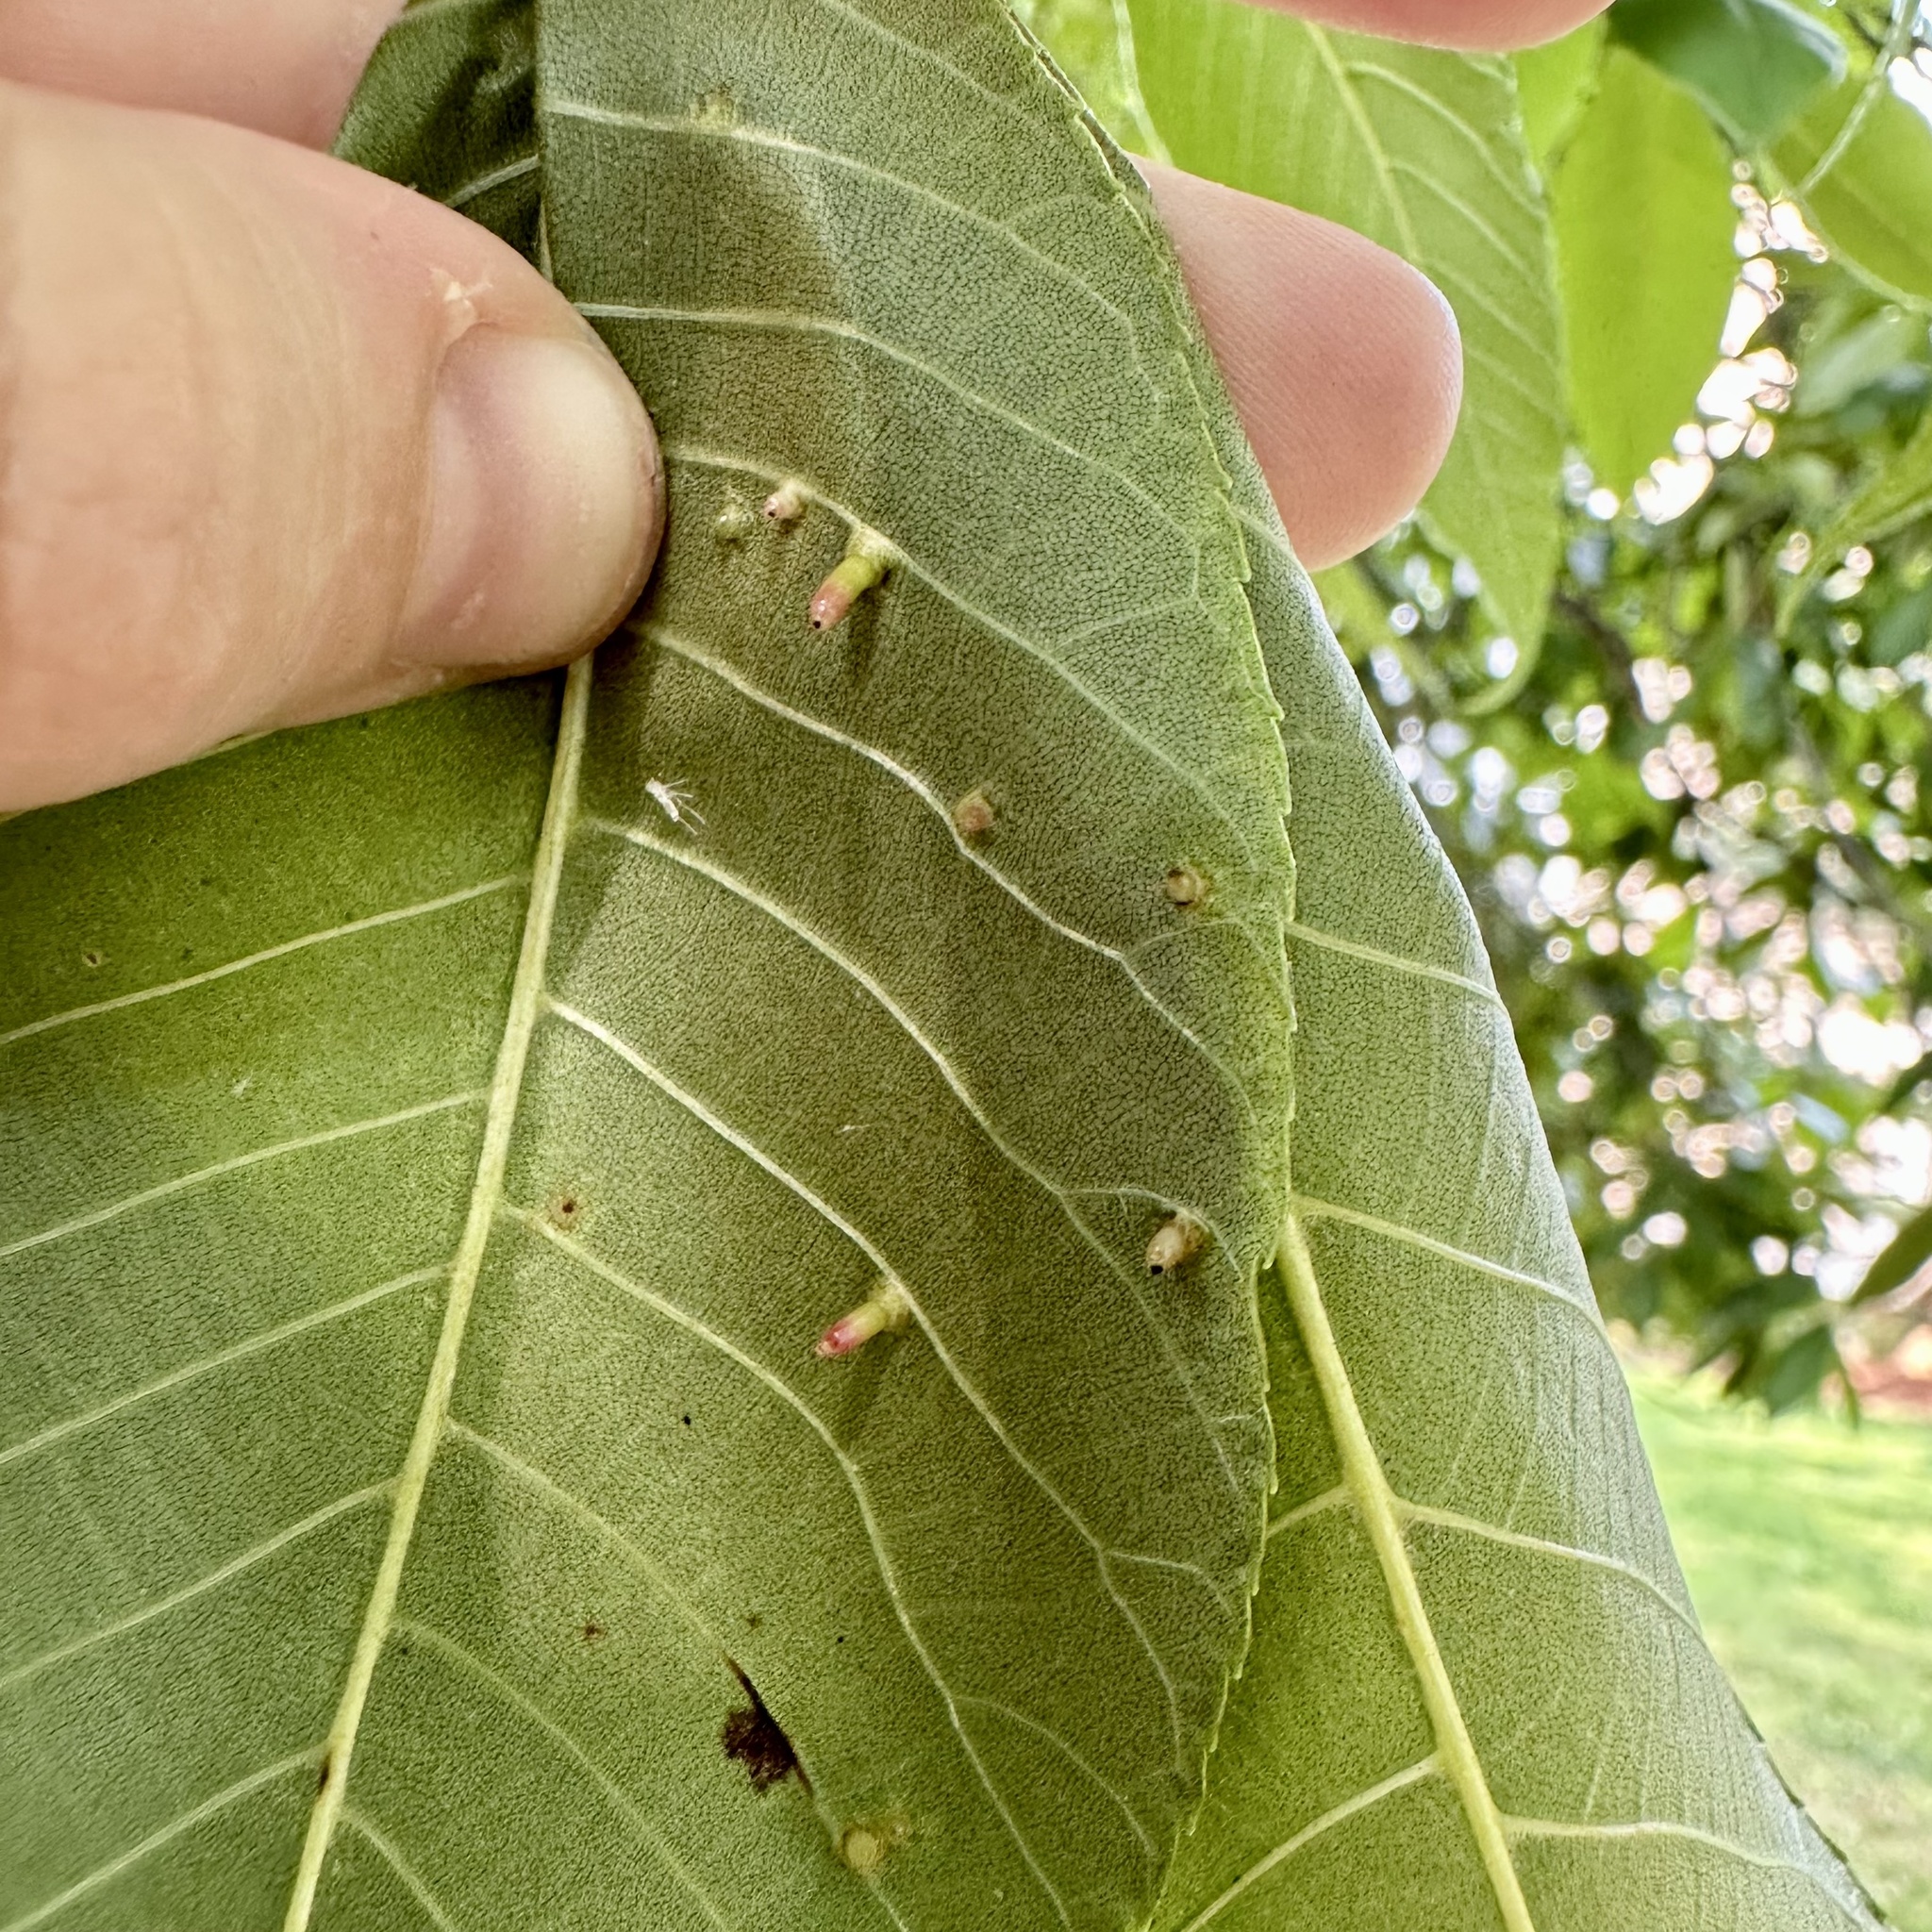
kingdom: Animalia
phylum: Arthropoda
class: Insecta
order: Diptera
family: Cecidomyiidae
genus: Caryomyia
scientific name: Caryomyia tubicola
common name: Hickory bullet gall midge
